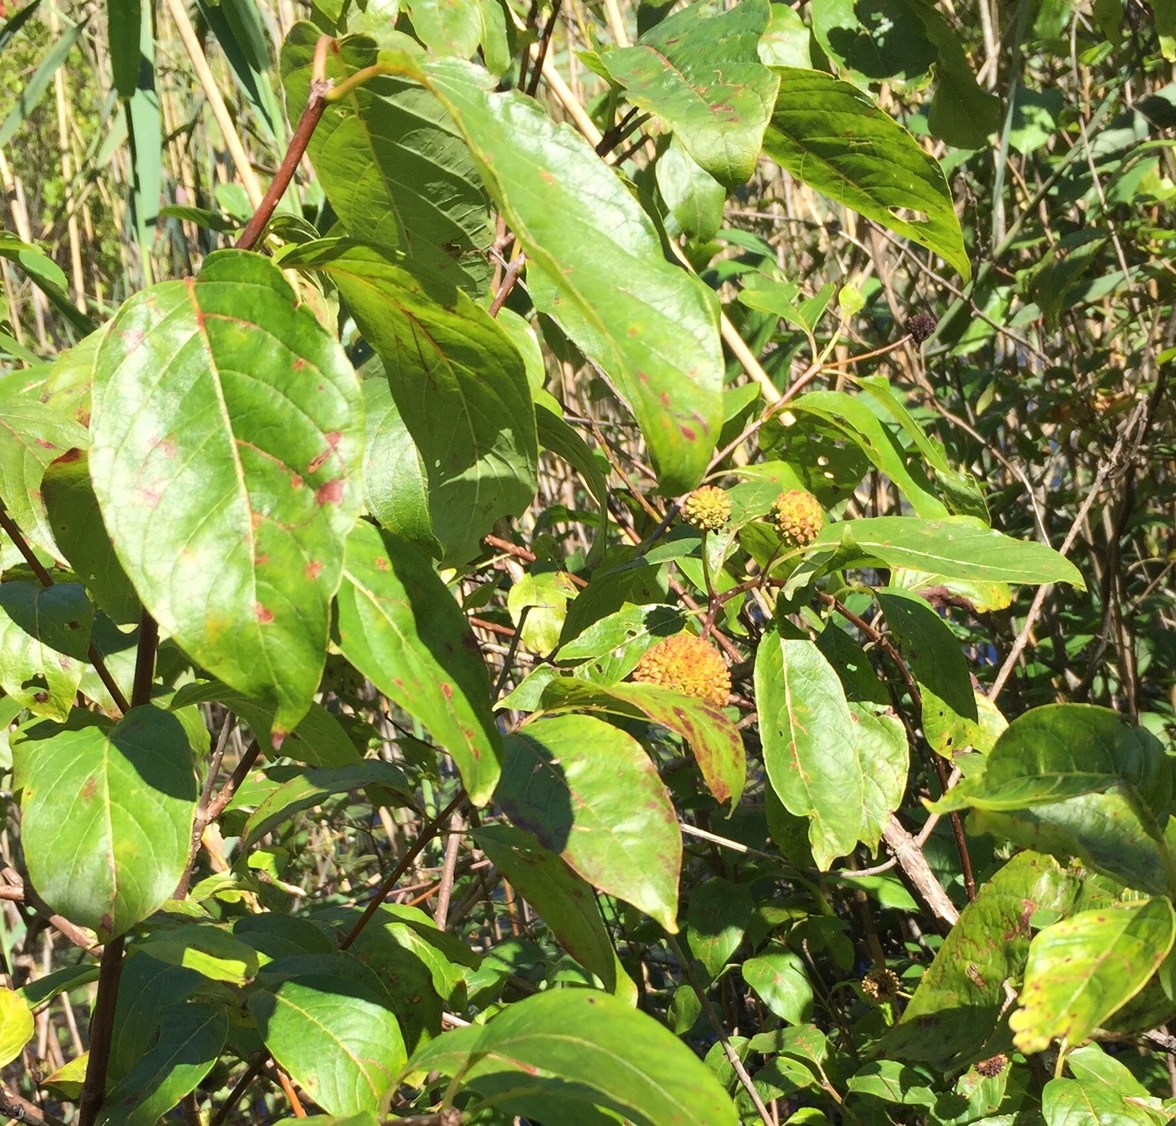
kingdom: Plantae
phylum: Tracheophyta
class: Magnoliopsida
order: Gentianales
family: Rubiaceae
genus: Cephalanthus
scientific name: Cephalanthus occidentalis
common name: Button-willow
